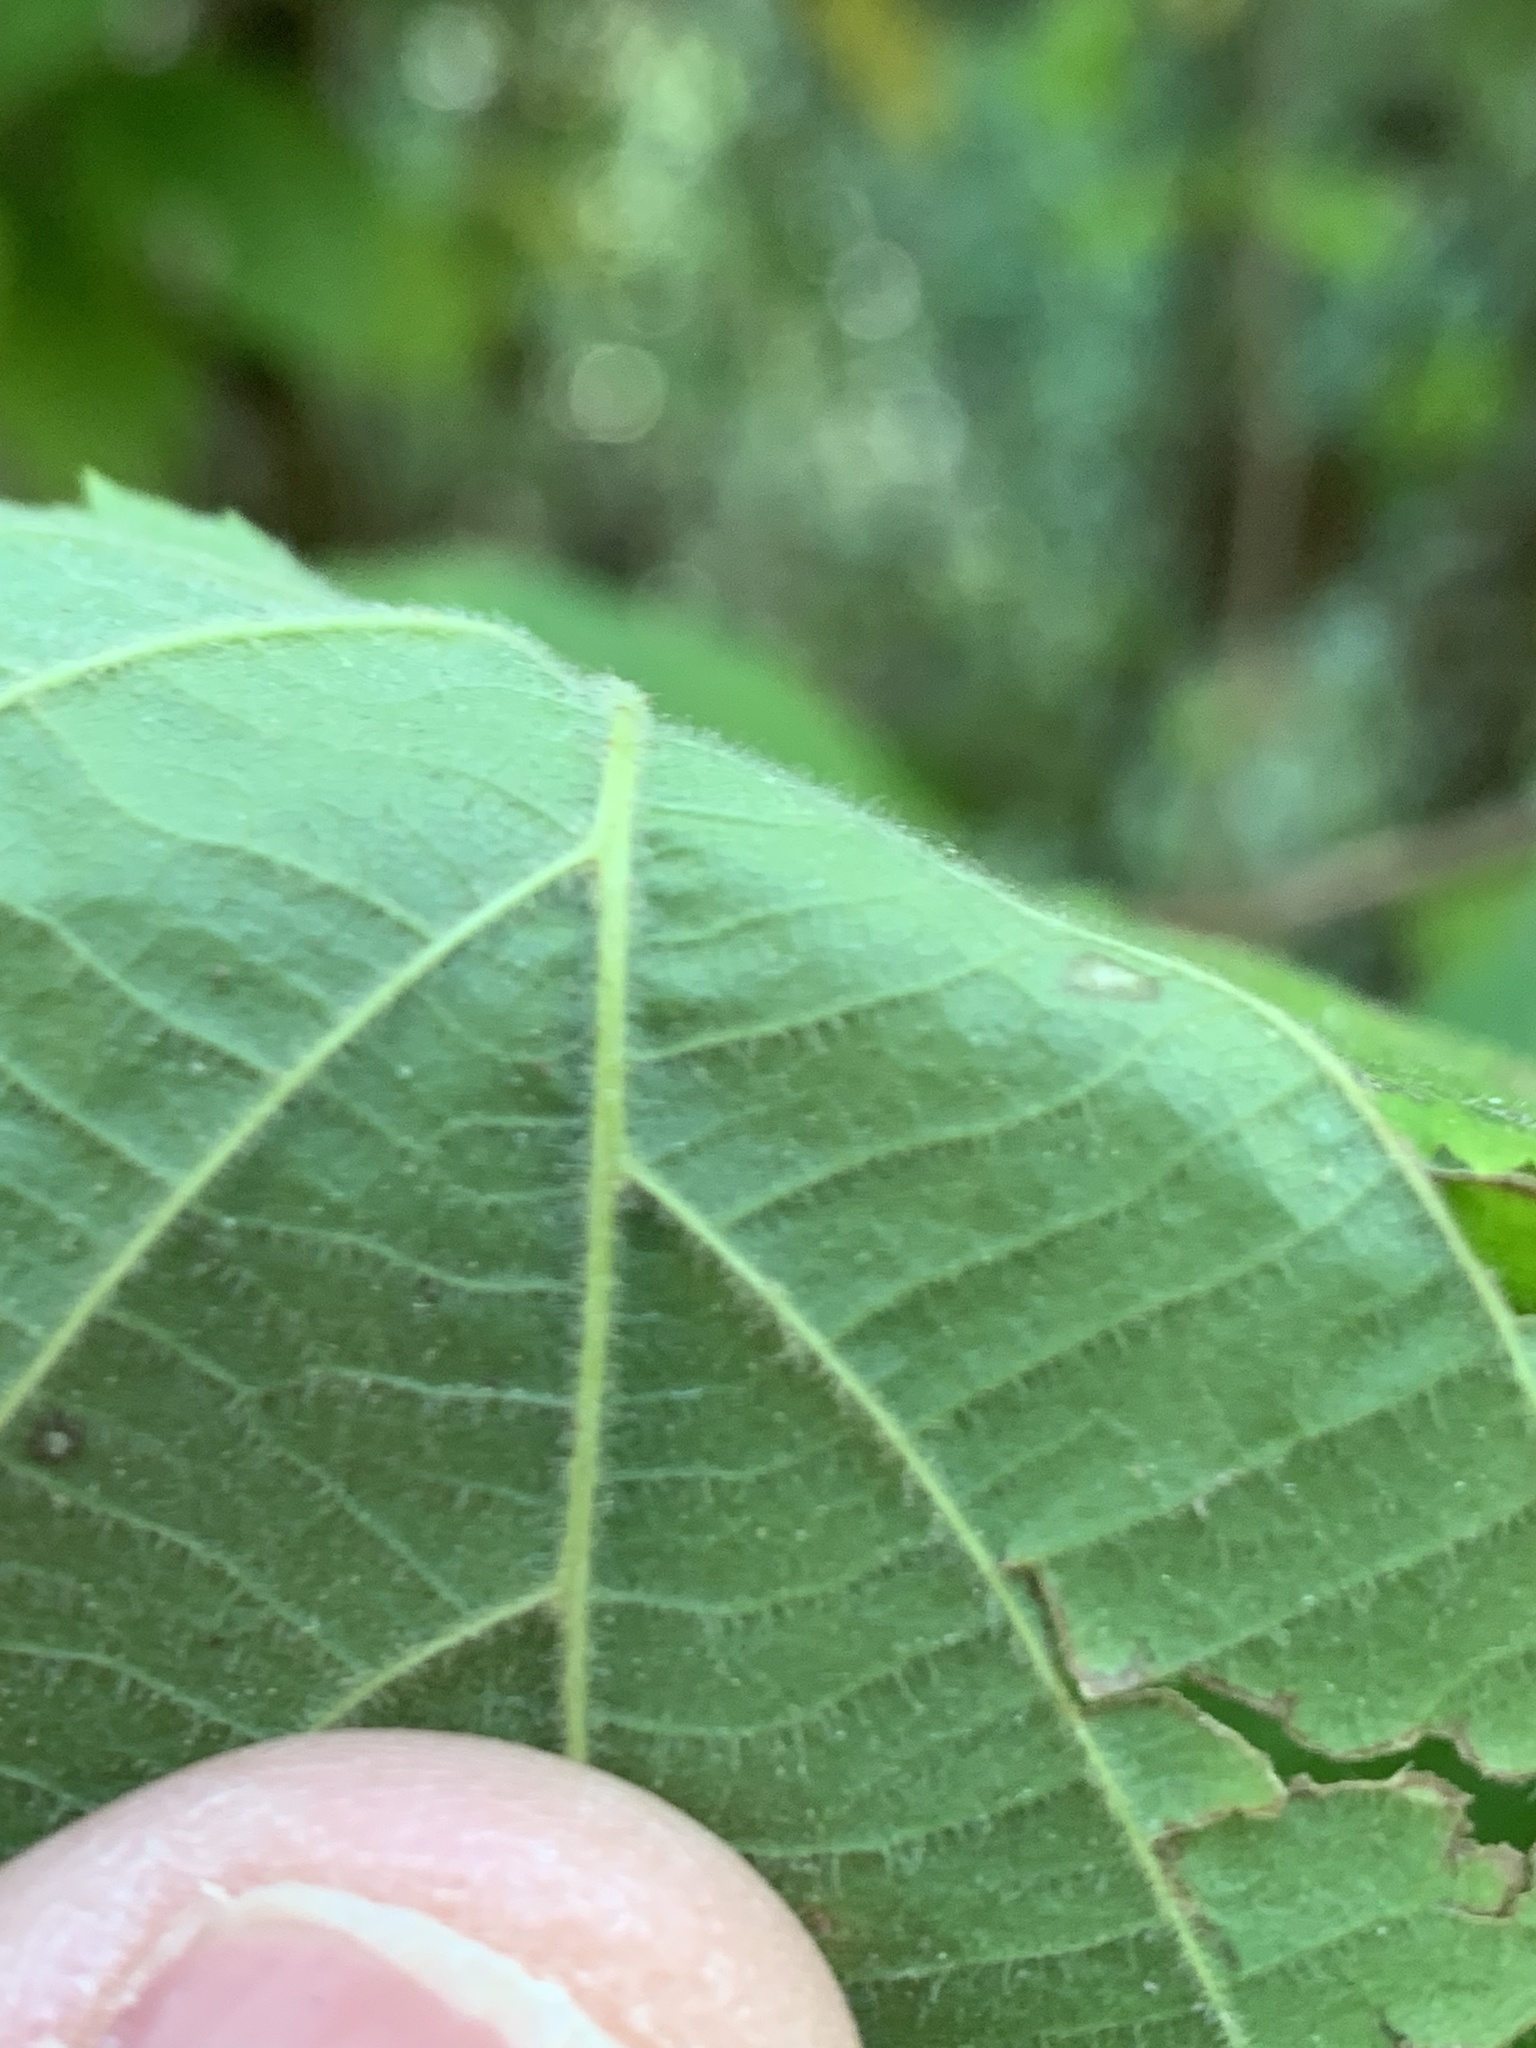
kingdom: Plantae
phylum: Tracheophyta
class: Magnoliopsida
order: Fagales
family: Betulaceae
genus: Corylus
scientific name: Corylus americana
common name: American hazel
